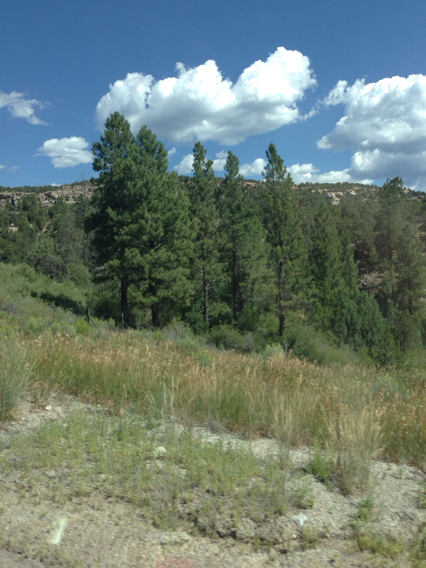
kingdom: Plantae
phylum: Tracheophyta
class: Pinopsida
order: Pinales
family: Pinaceae
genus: Pinus
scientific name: Pinus ponderosa
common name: Western yellow-pine
